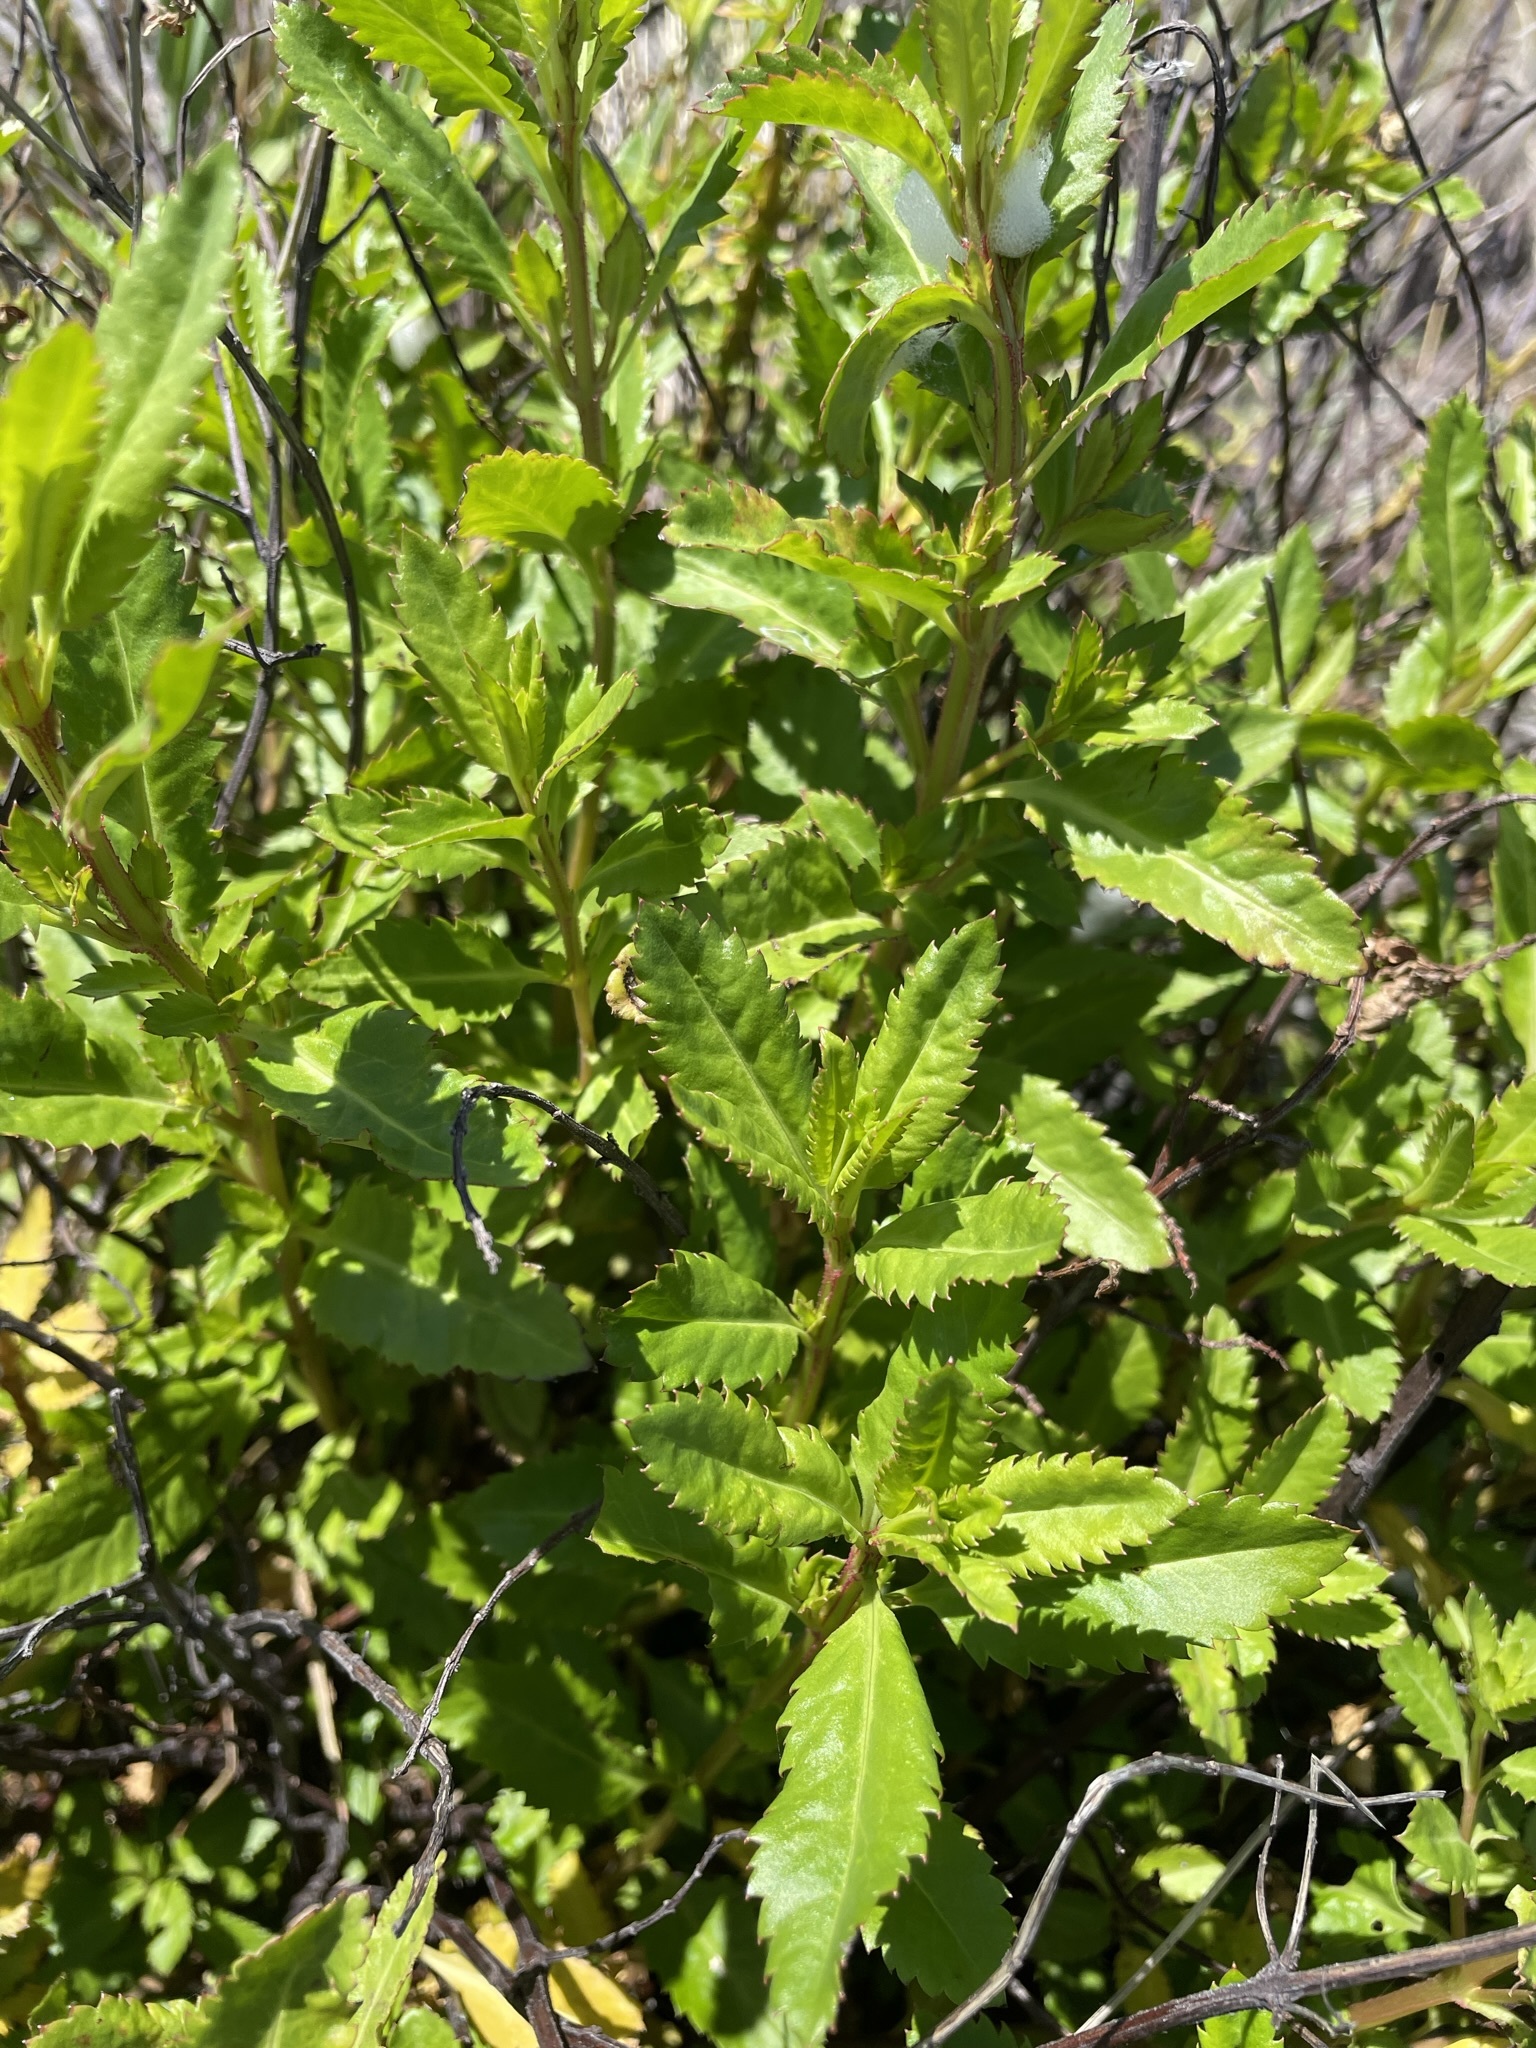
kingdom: Plantae
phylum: Tracheophyta
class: Magnoliopsida
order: Saxifragales
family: Haloragaceae
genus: Haloragis
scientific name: Haloragis erecta
